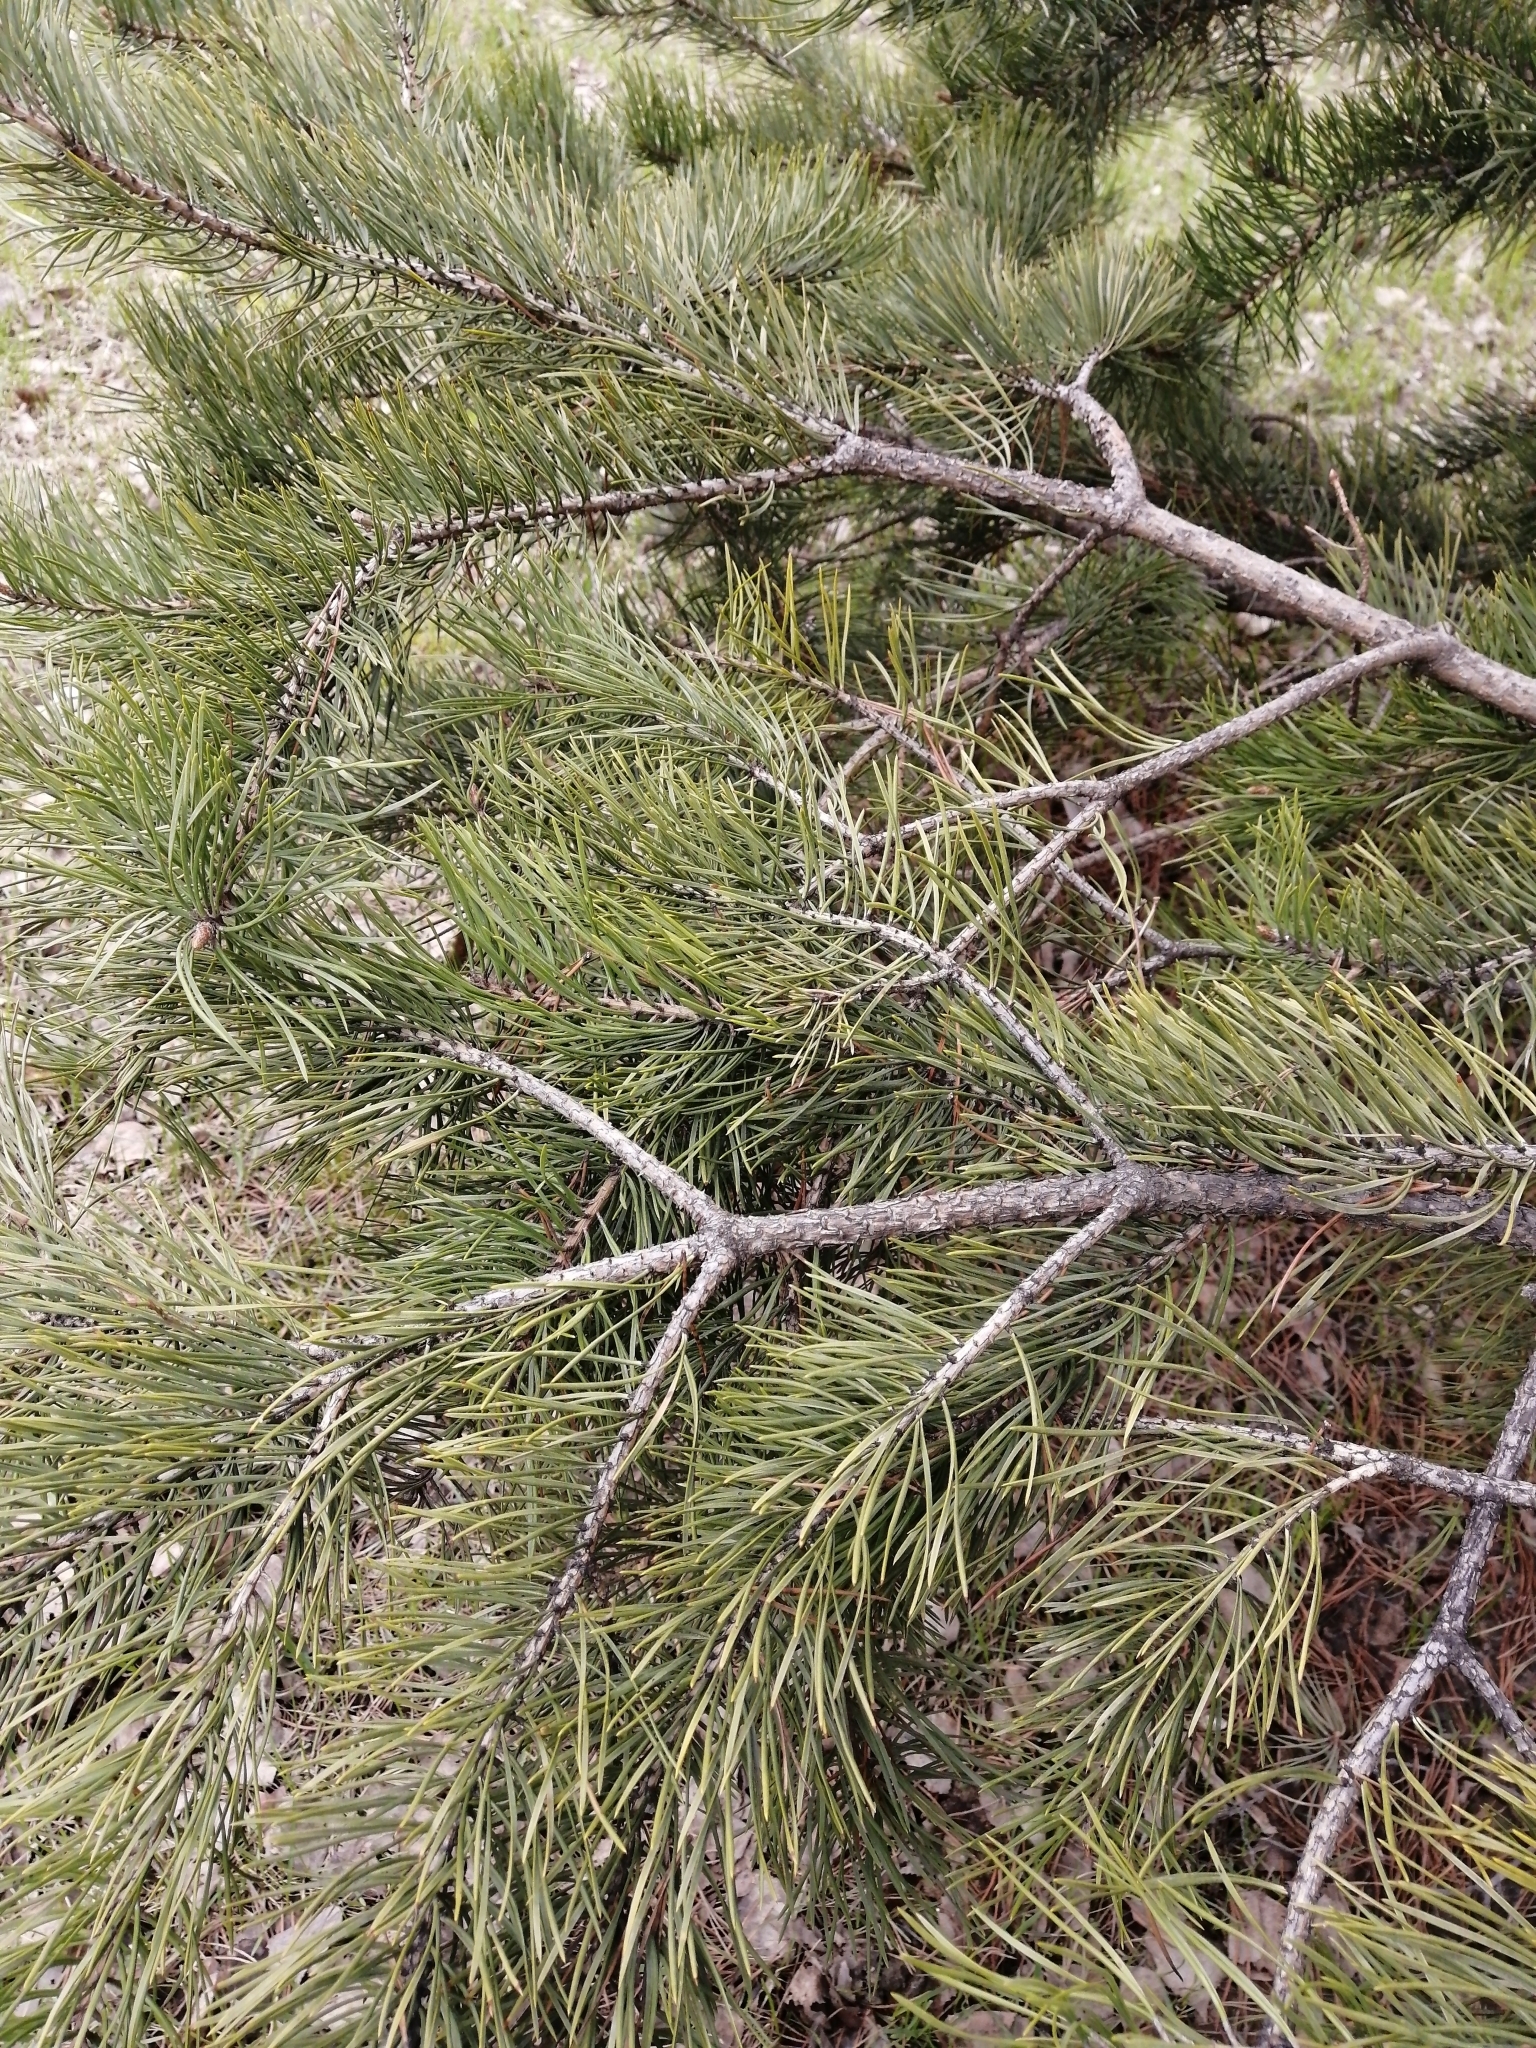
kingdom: Plantae
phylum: Tracheophyta
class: Pinopsida
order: Pinales
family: Pinaceae
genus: Pinus
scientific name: Pinus sylvestris
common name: Scots pine
